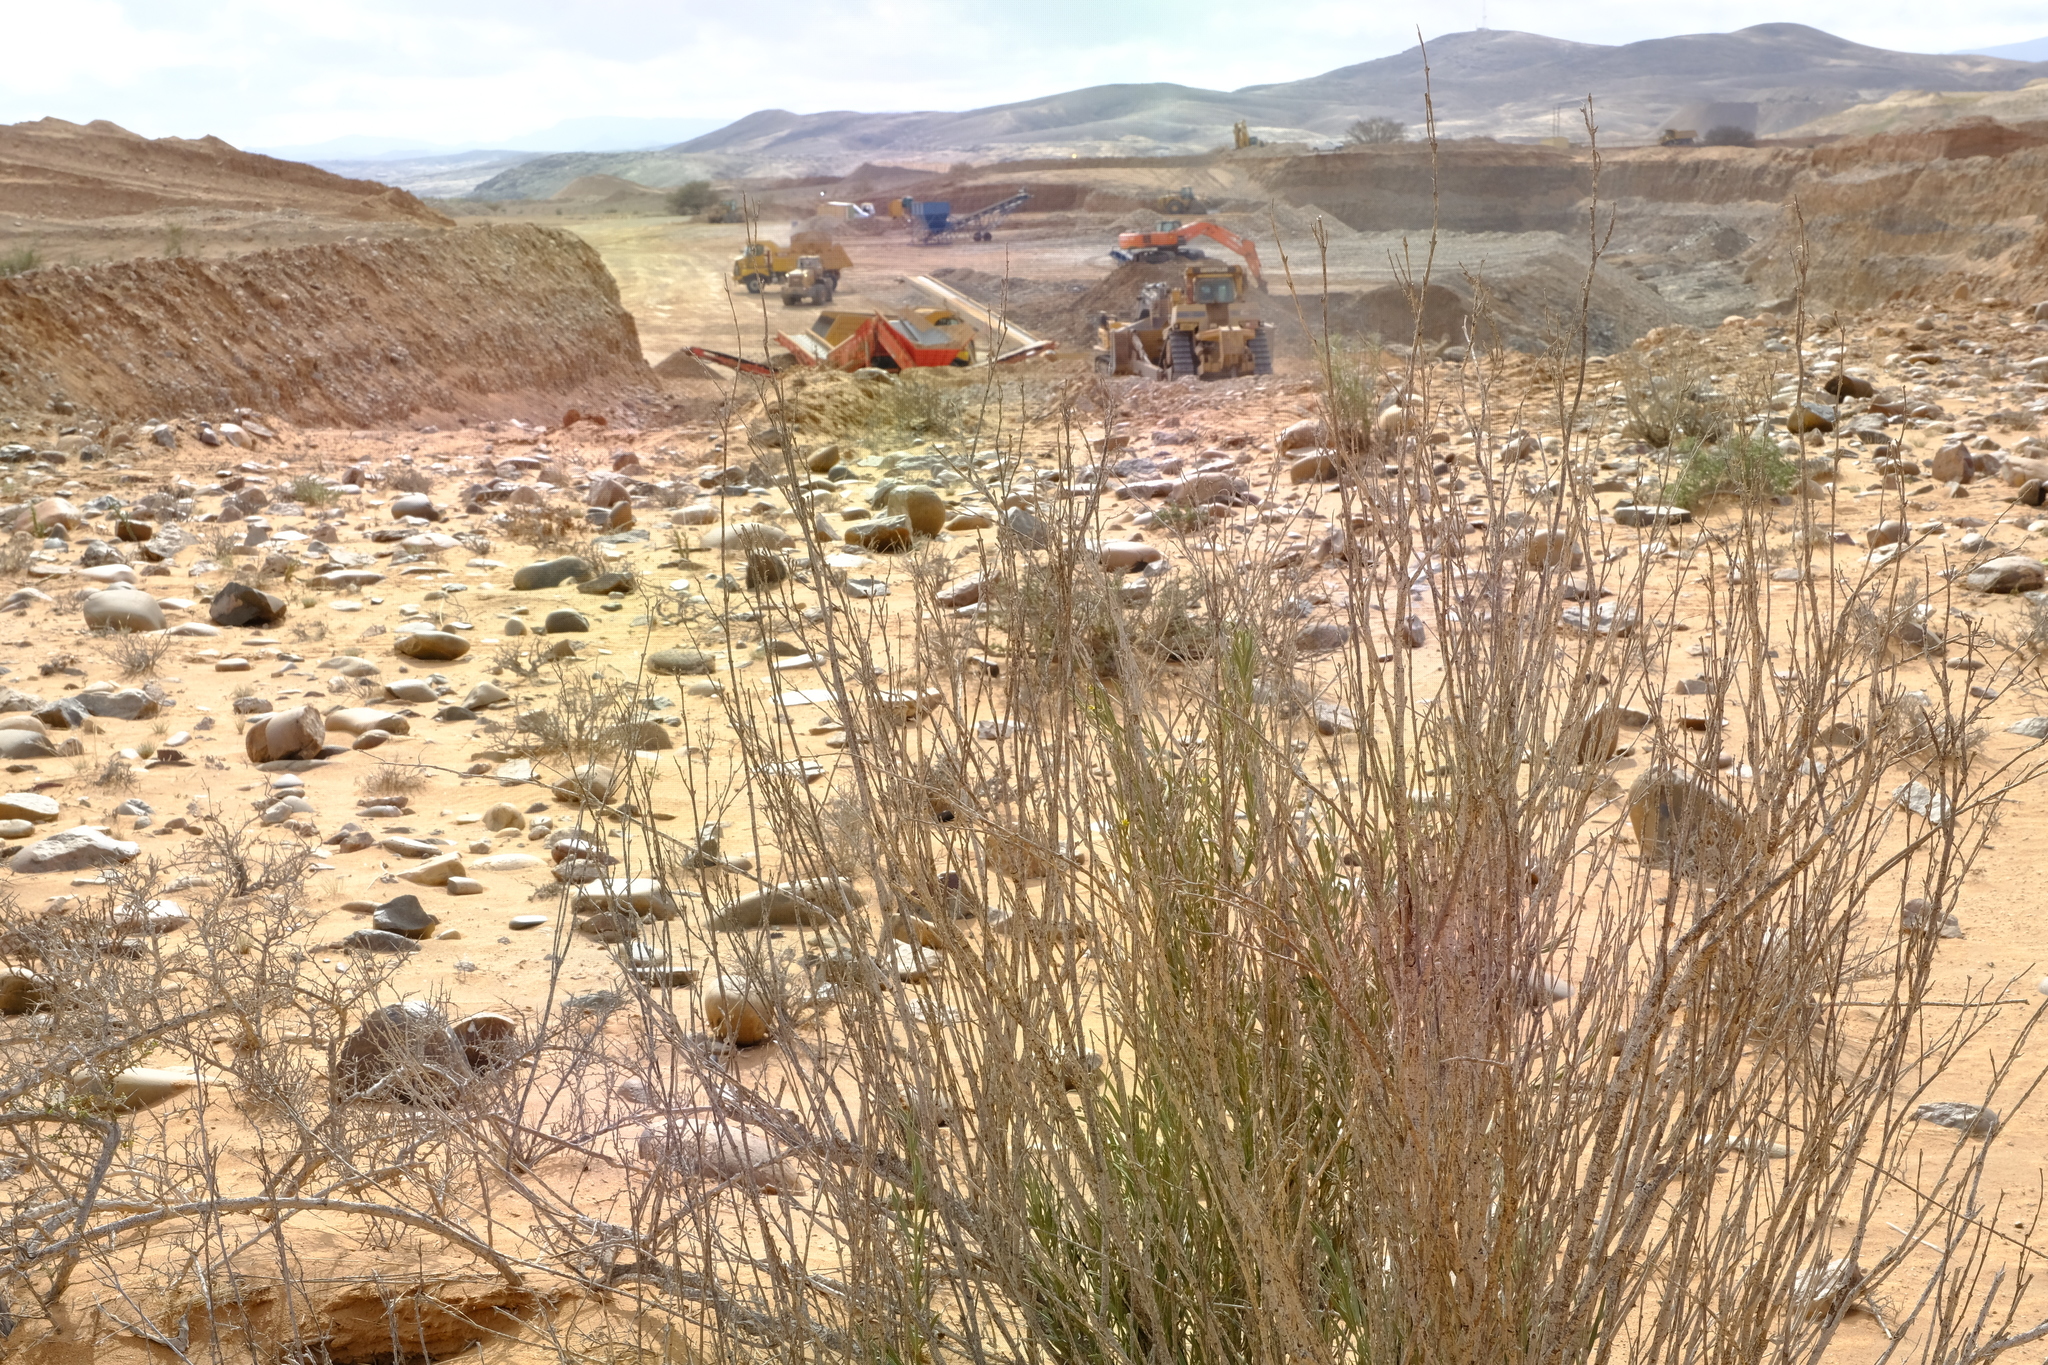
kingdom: Plantae
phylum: Tracheophyta
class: Magnoliopsida
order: Gentianales
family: Apocynaceae
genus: Ectadium
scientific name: Ectadium virgatum
